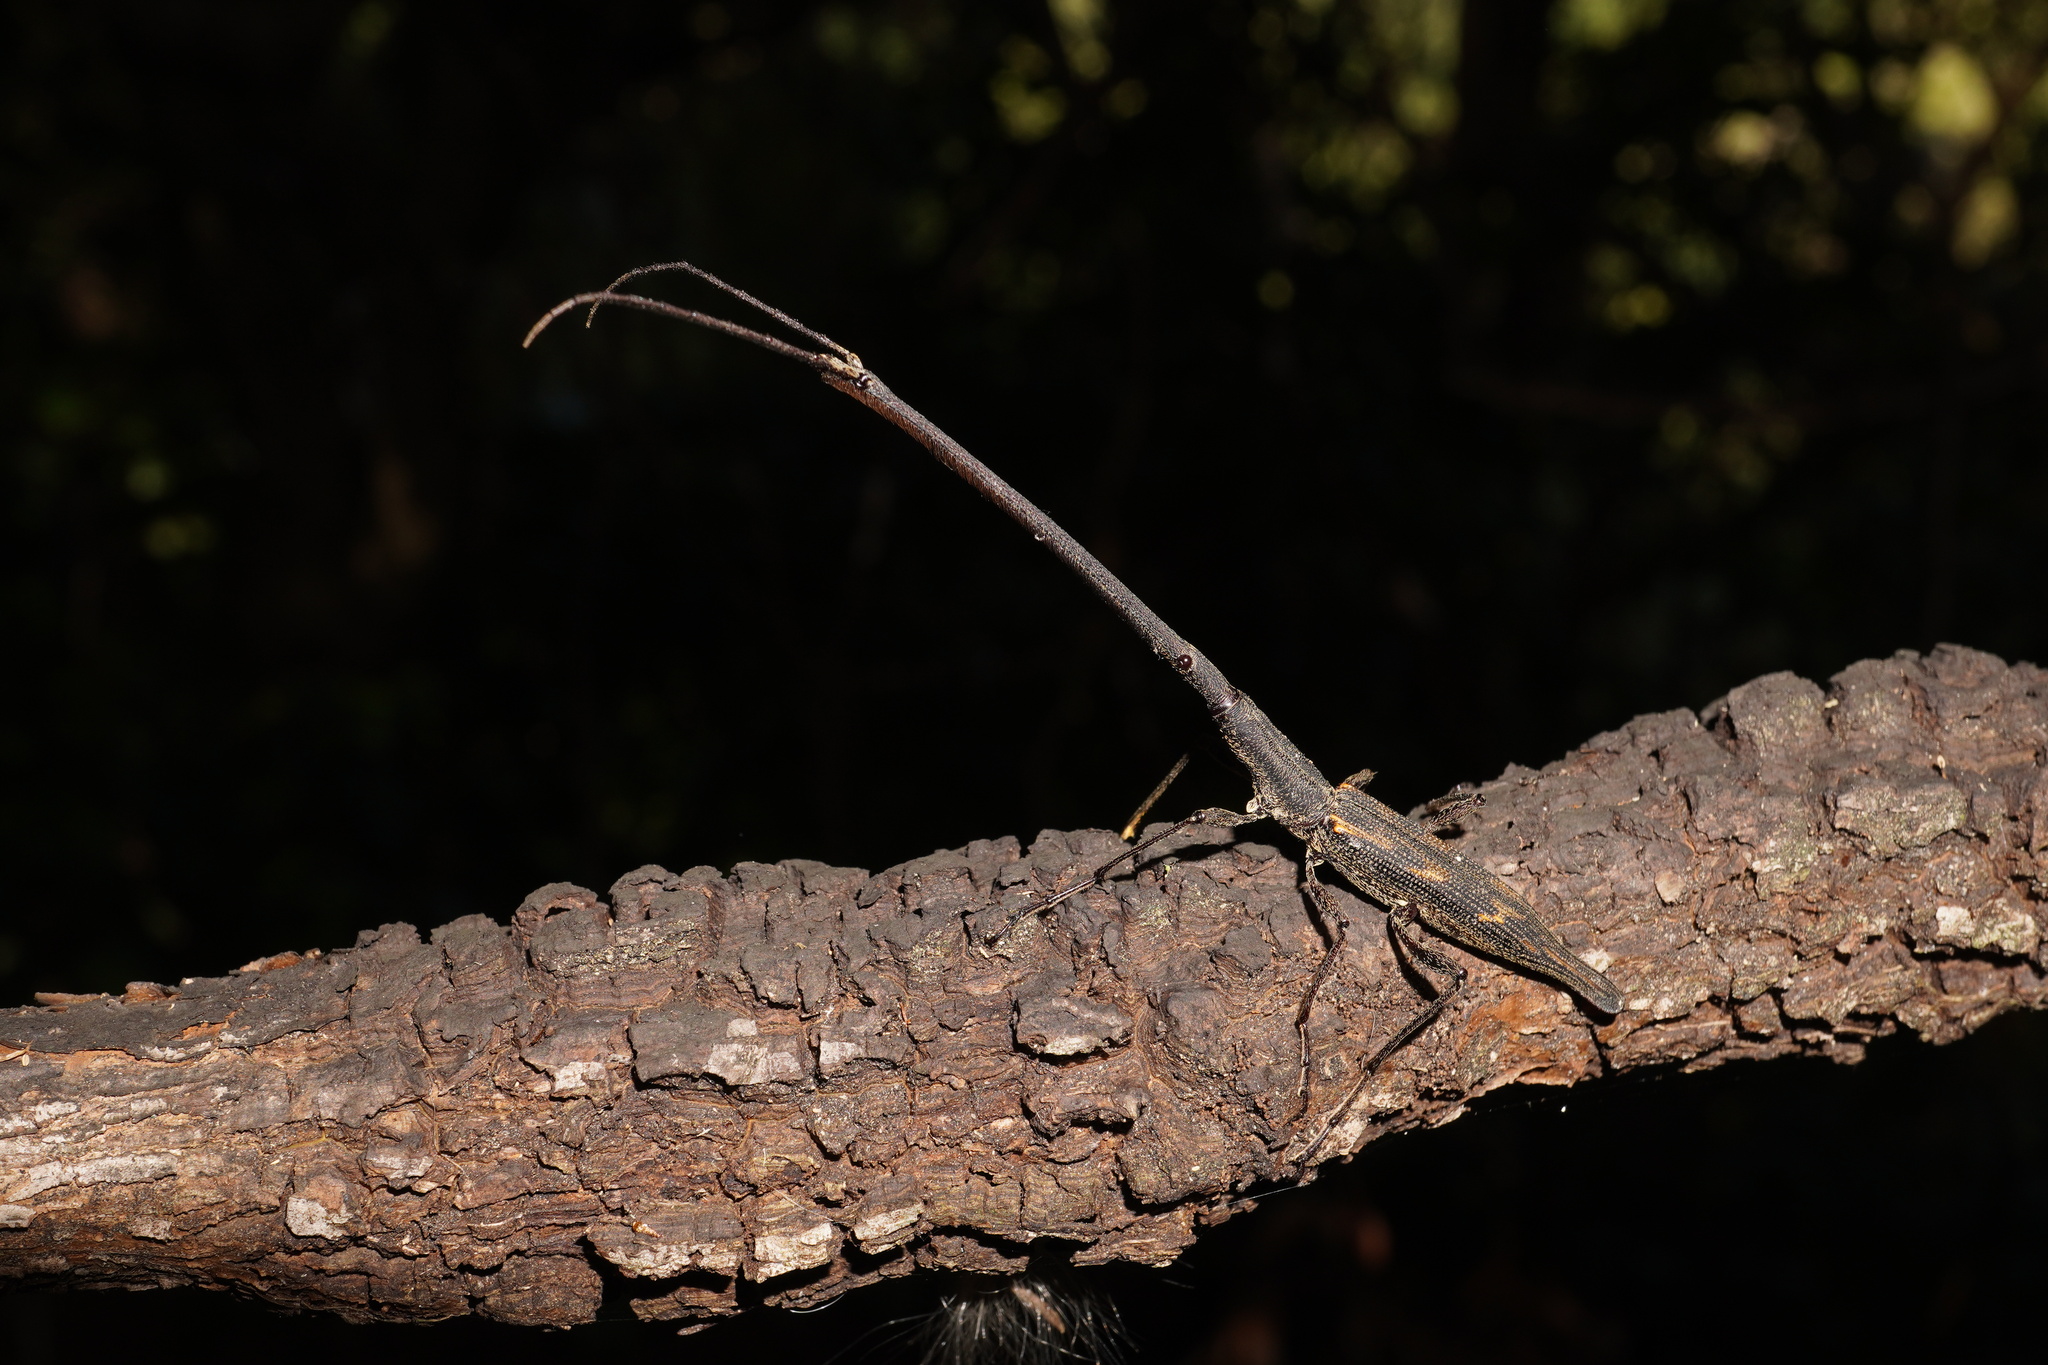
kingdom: Animalia
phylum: Arthropoda
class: Insecta
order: Coleoptera
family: Brentidae
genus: Lasiorhynchus
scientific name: Lasiorhynchus barbicornis
